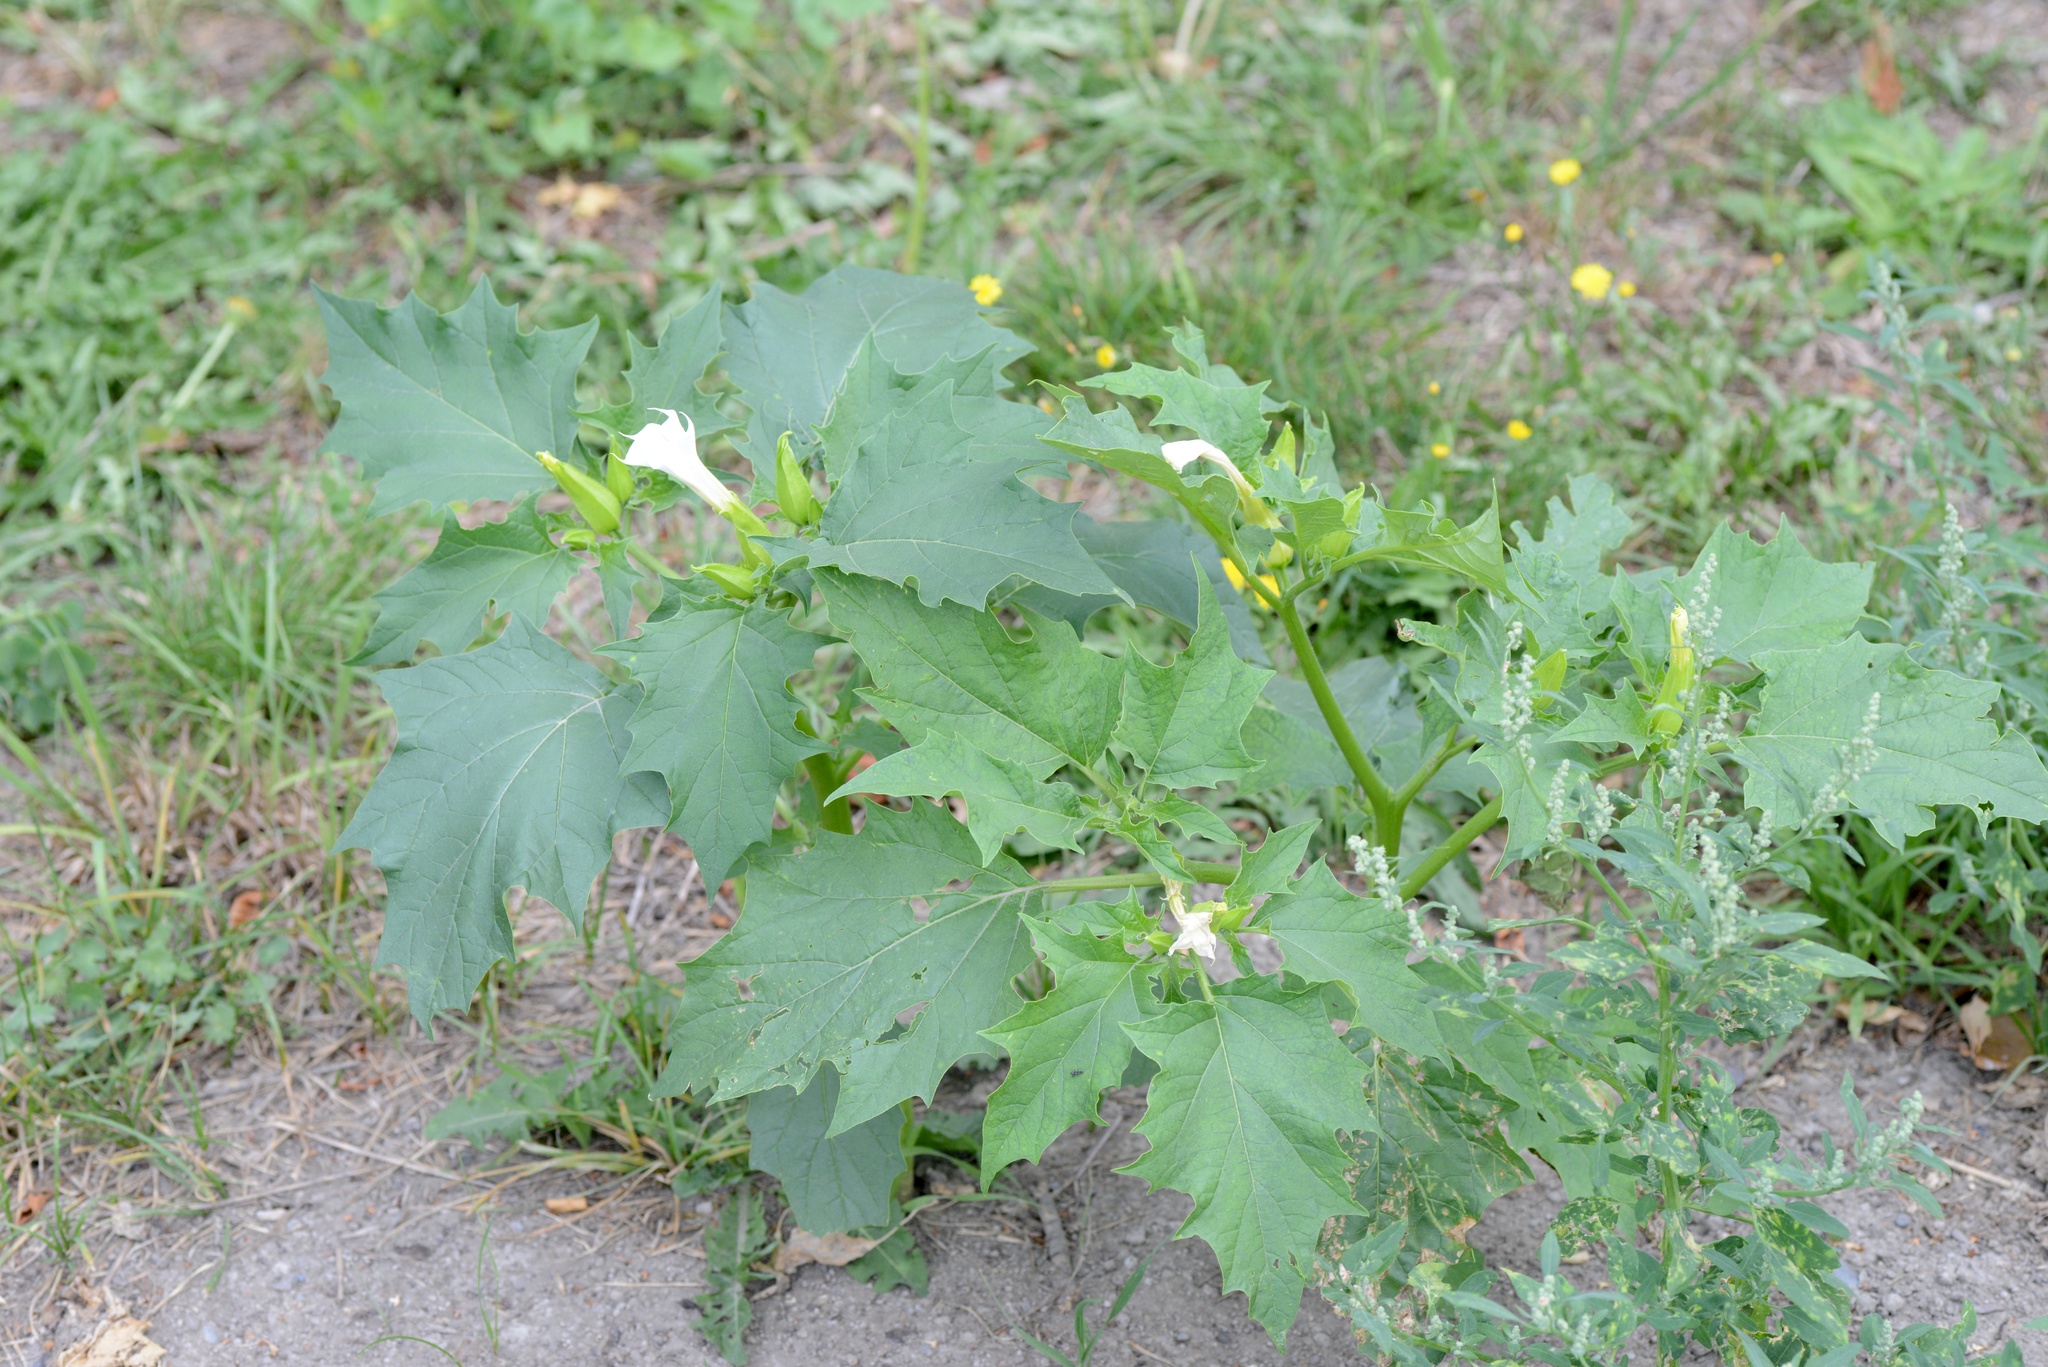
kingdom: Plantae
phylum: Tracheophyta
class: Magnoliopsida
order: Solanales
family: Solanaceae
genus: Datura
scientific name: Datura stramonium
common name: Thorn-apple
